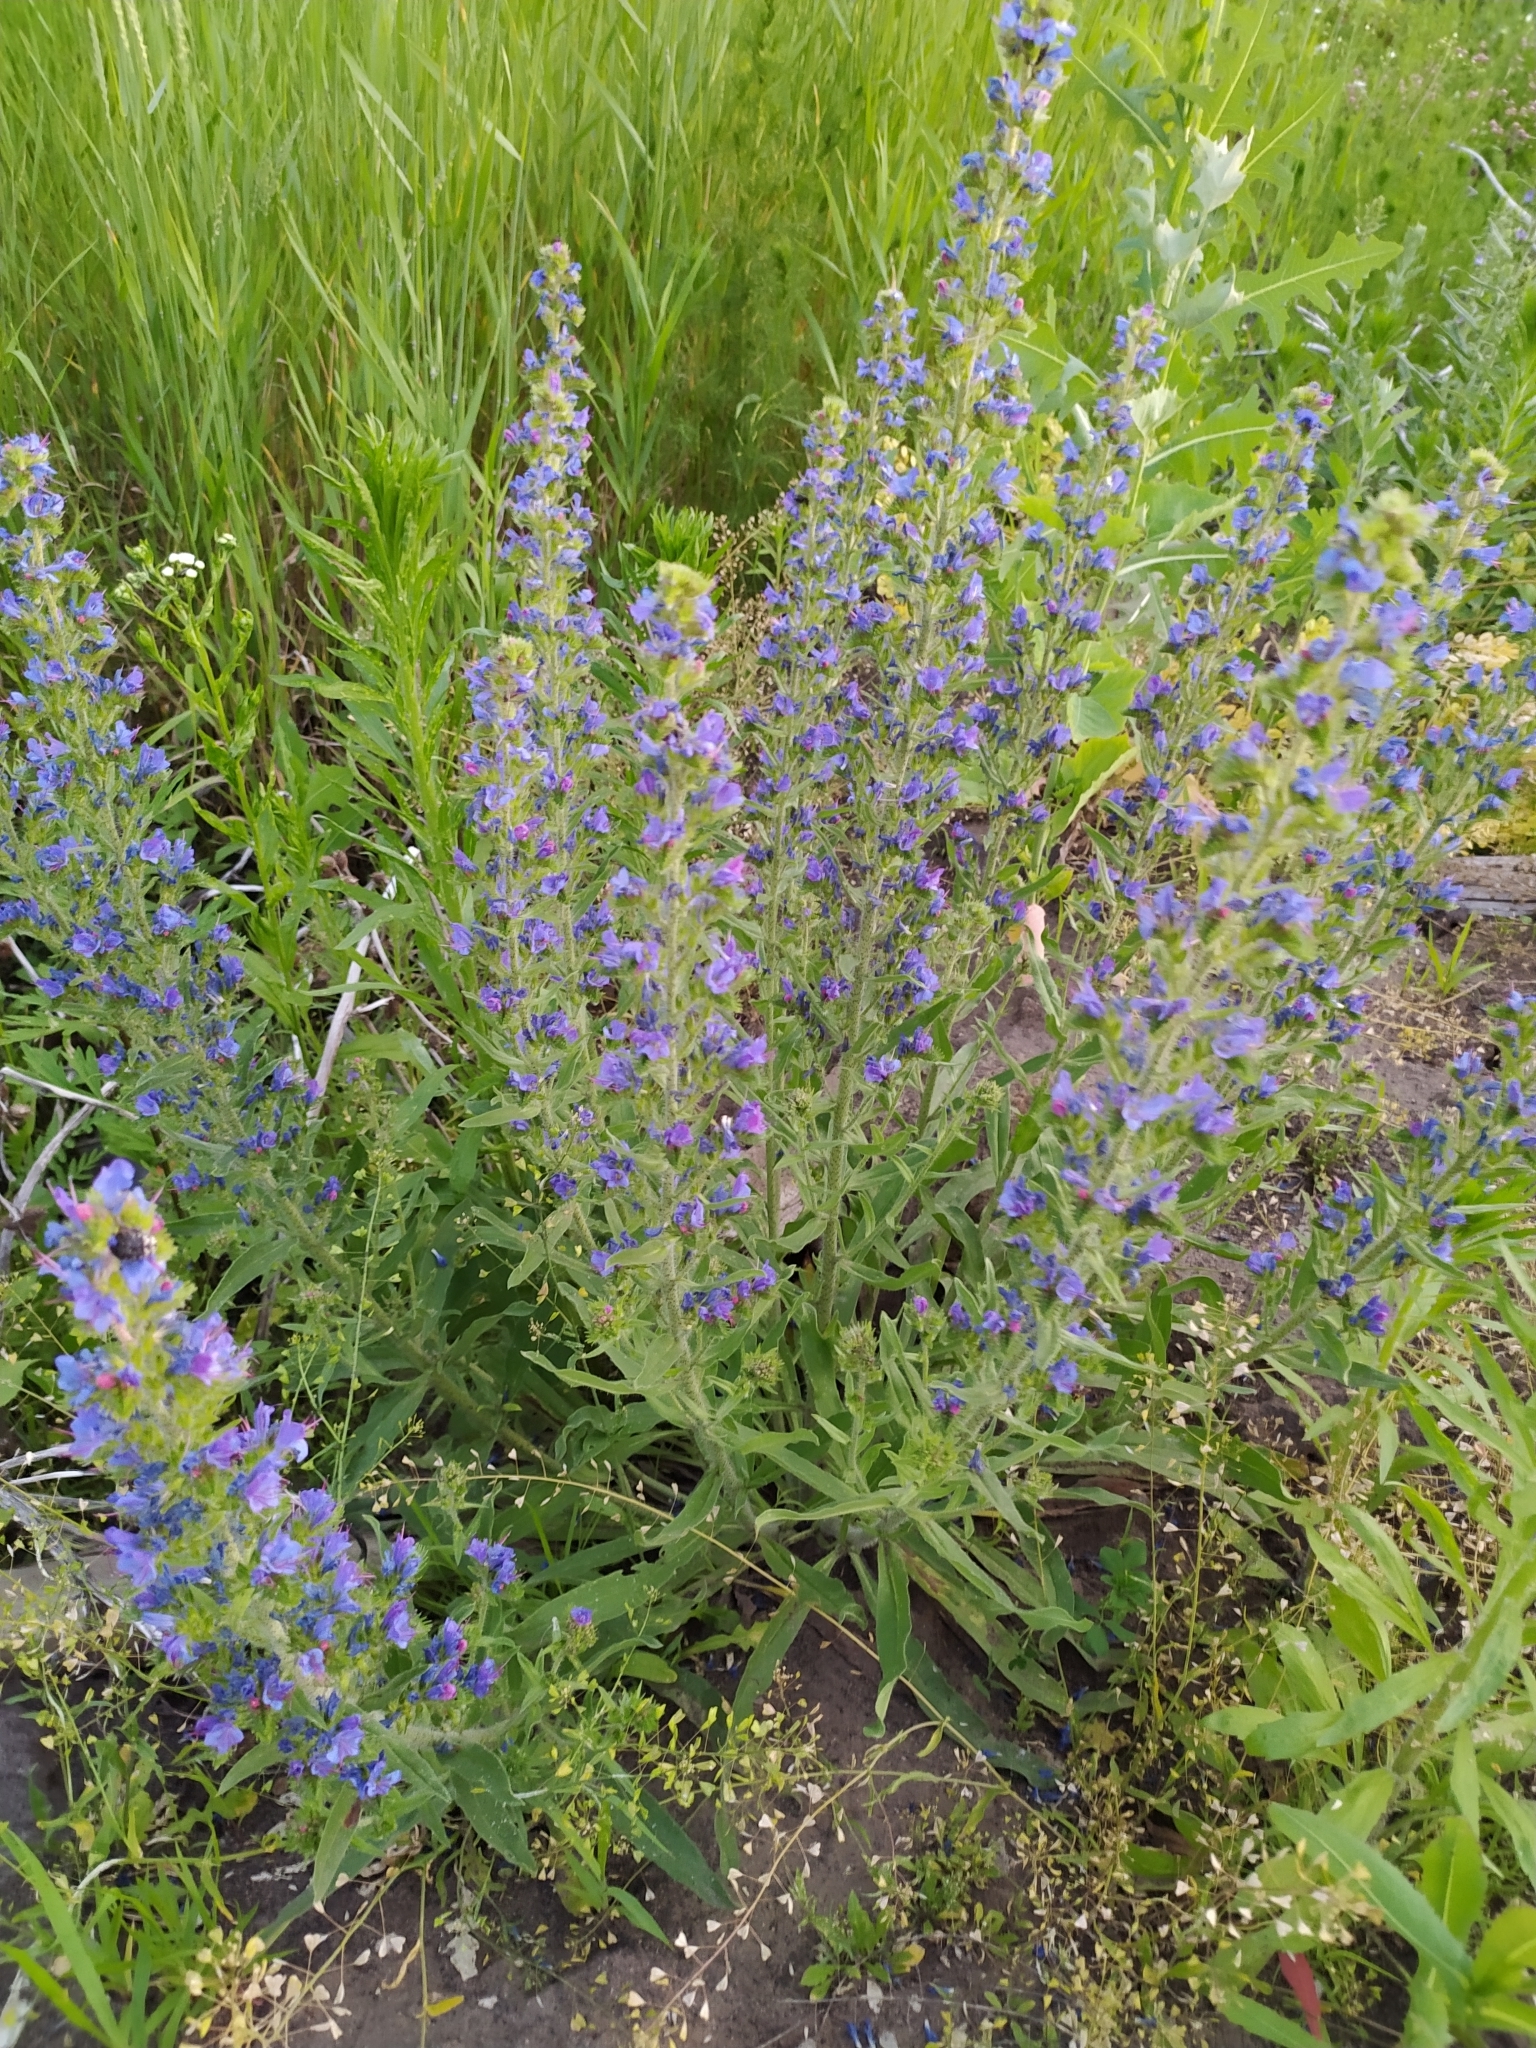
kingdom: Plantae
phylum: Tracheophyta
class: Magnoliopsida
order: Boraginales
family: Boraginaceae
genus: Echium
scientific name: Echium vulgare
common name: Common viper's bugloss
